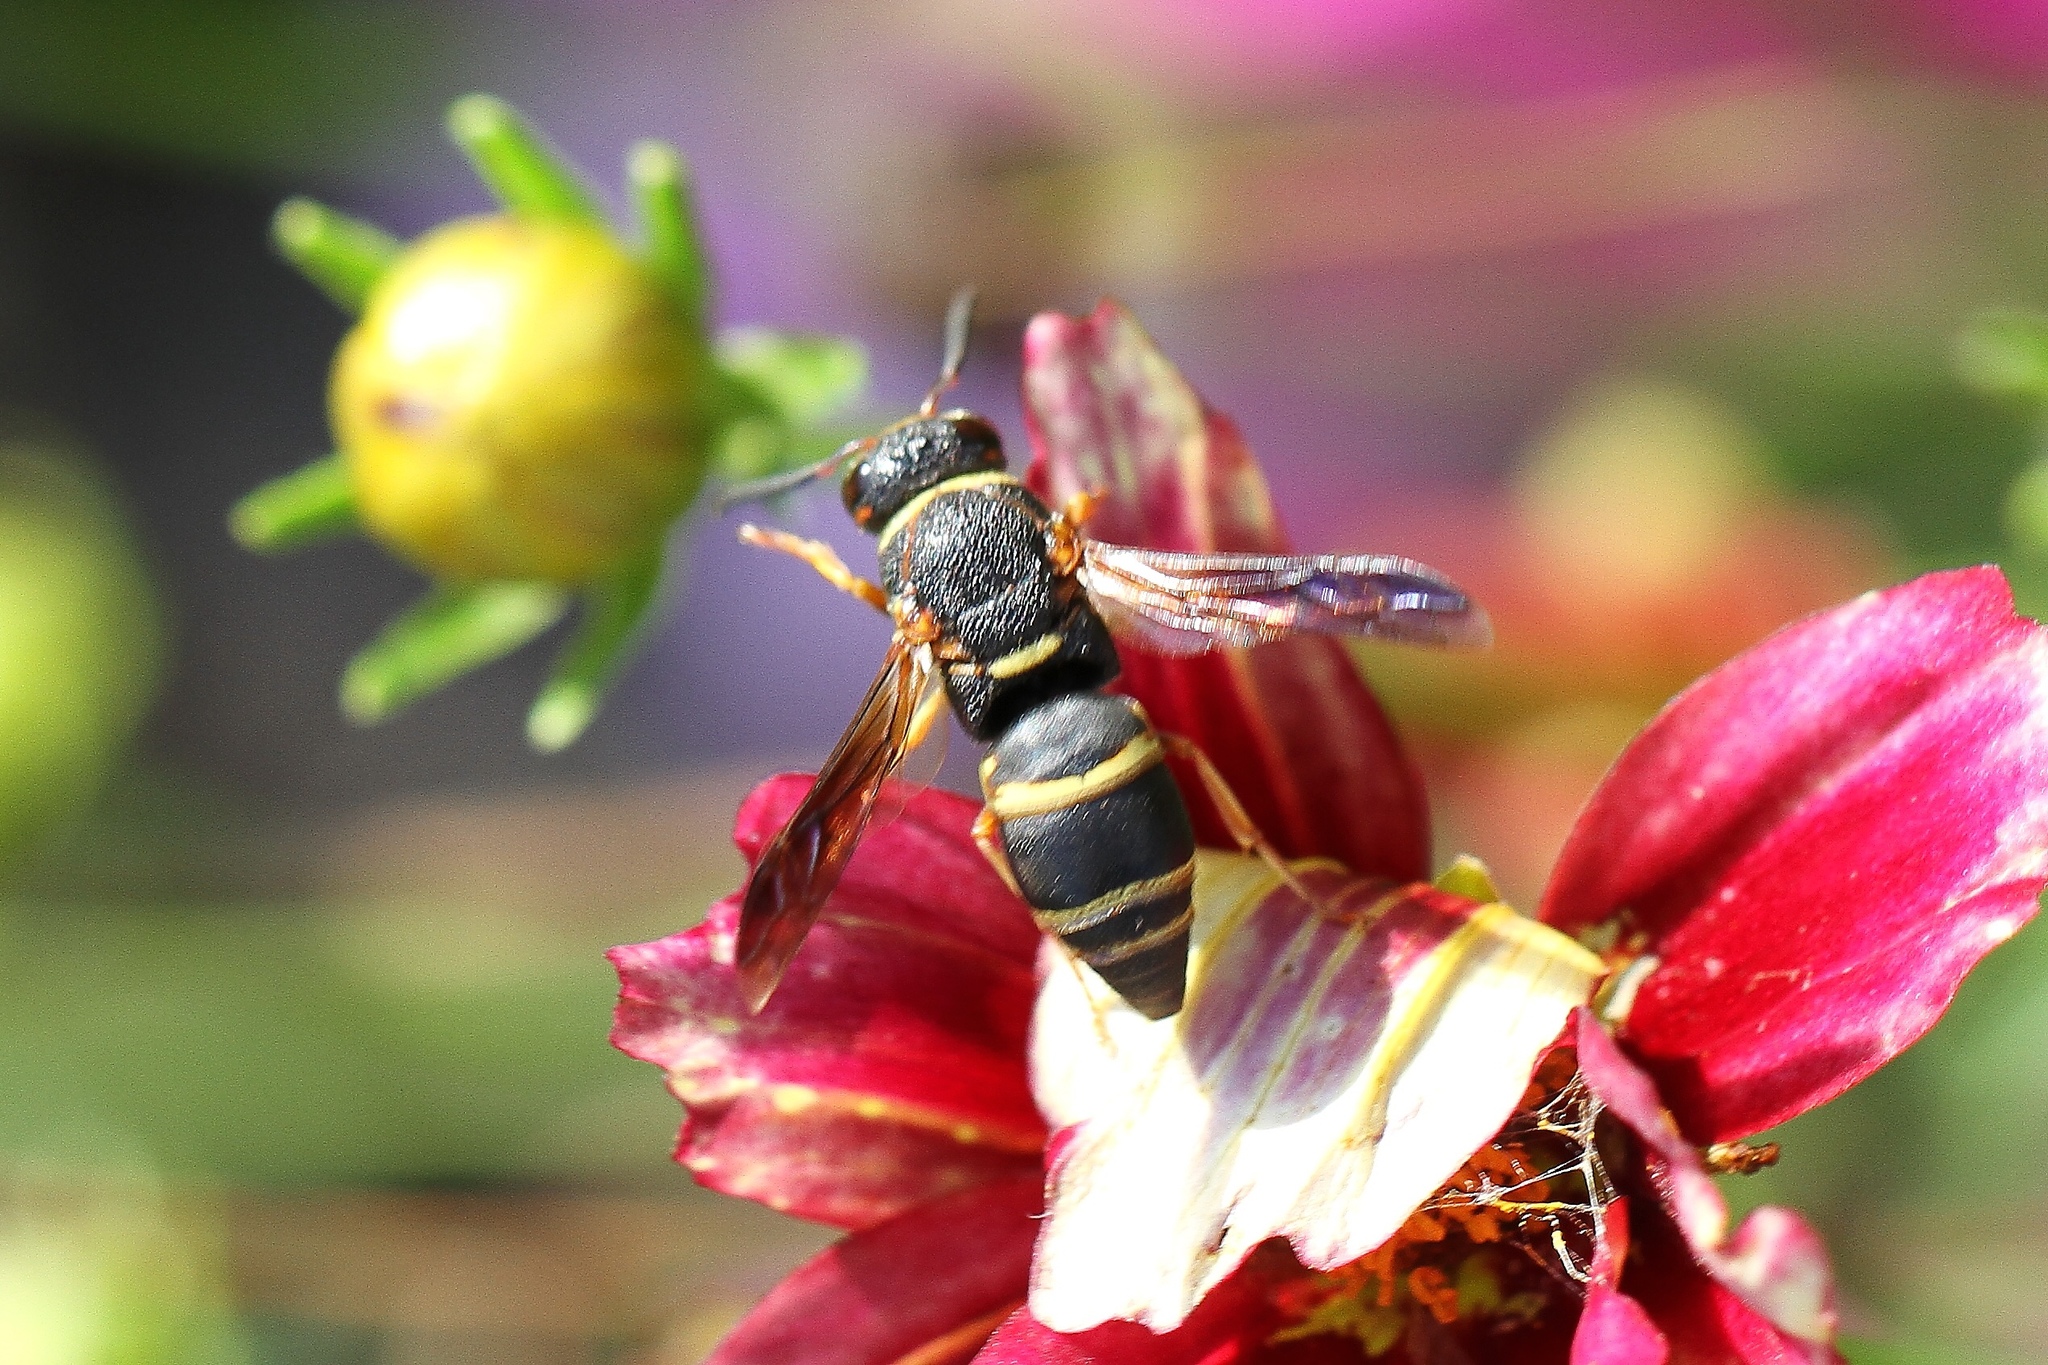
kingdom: Animalia
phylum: Arthropoda
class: Insecta
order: Hymenoptera
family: Eumenidae
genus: Euodynerus
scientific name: Euodynerus hidalgo
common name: Wasp
